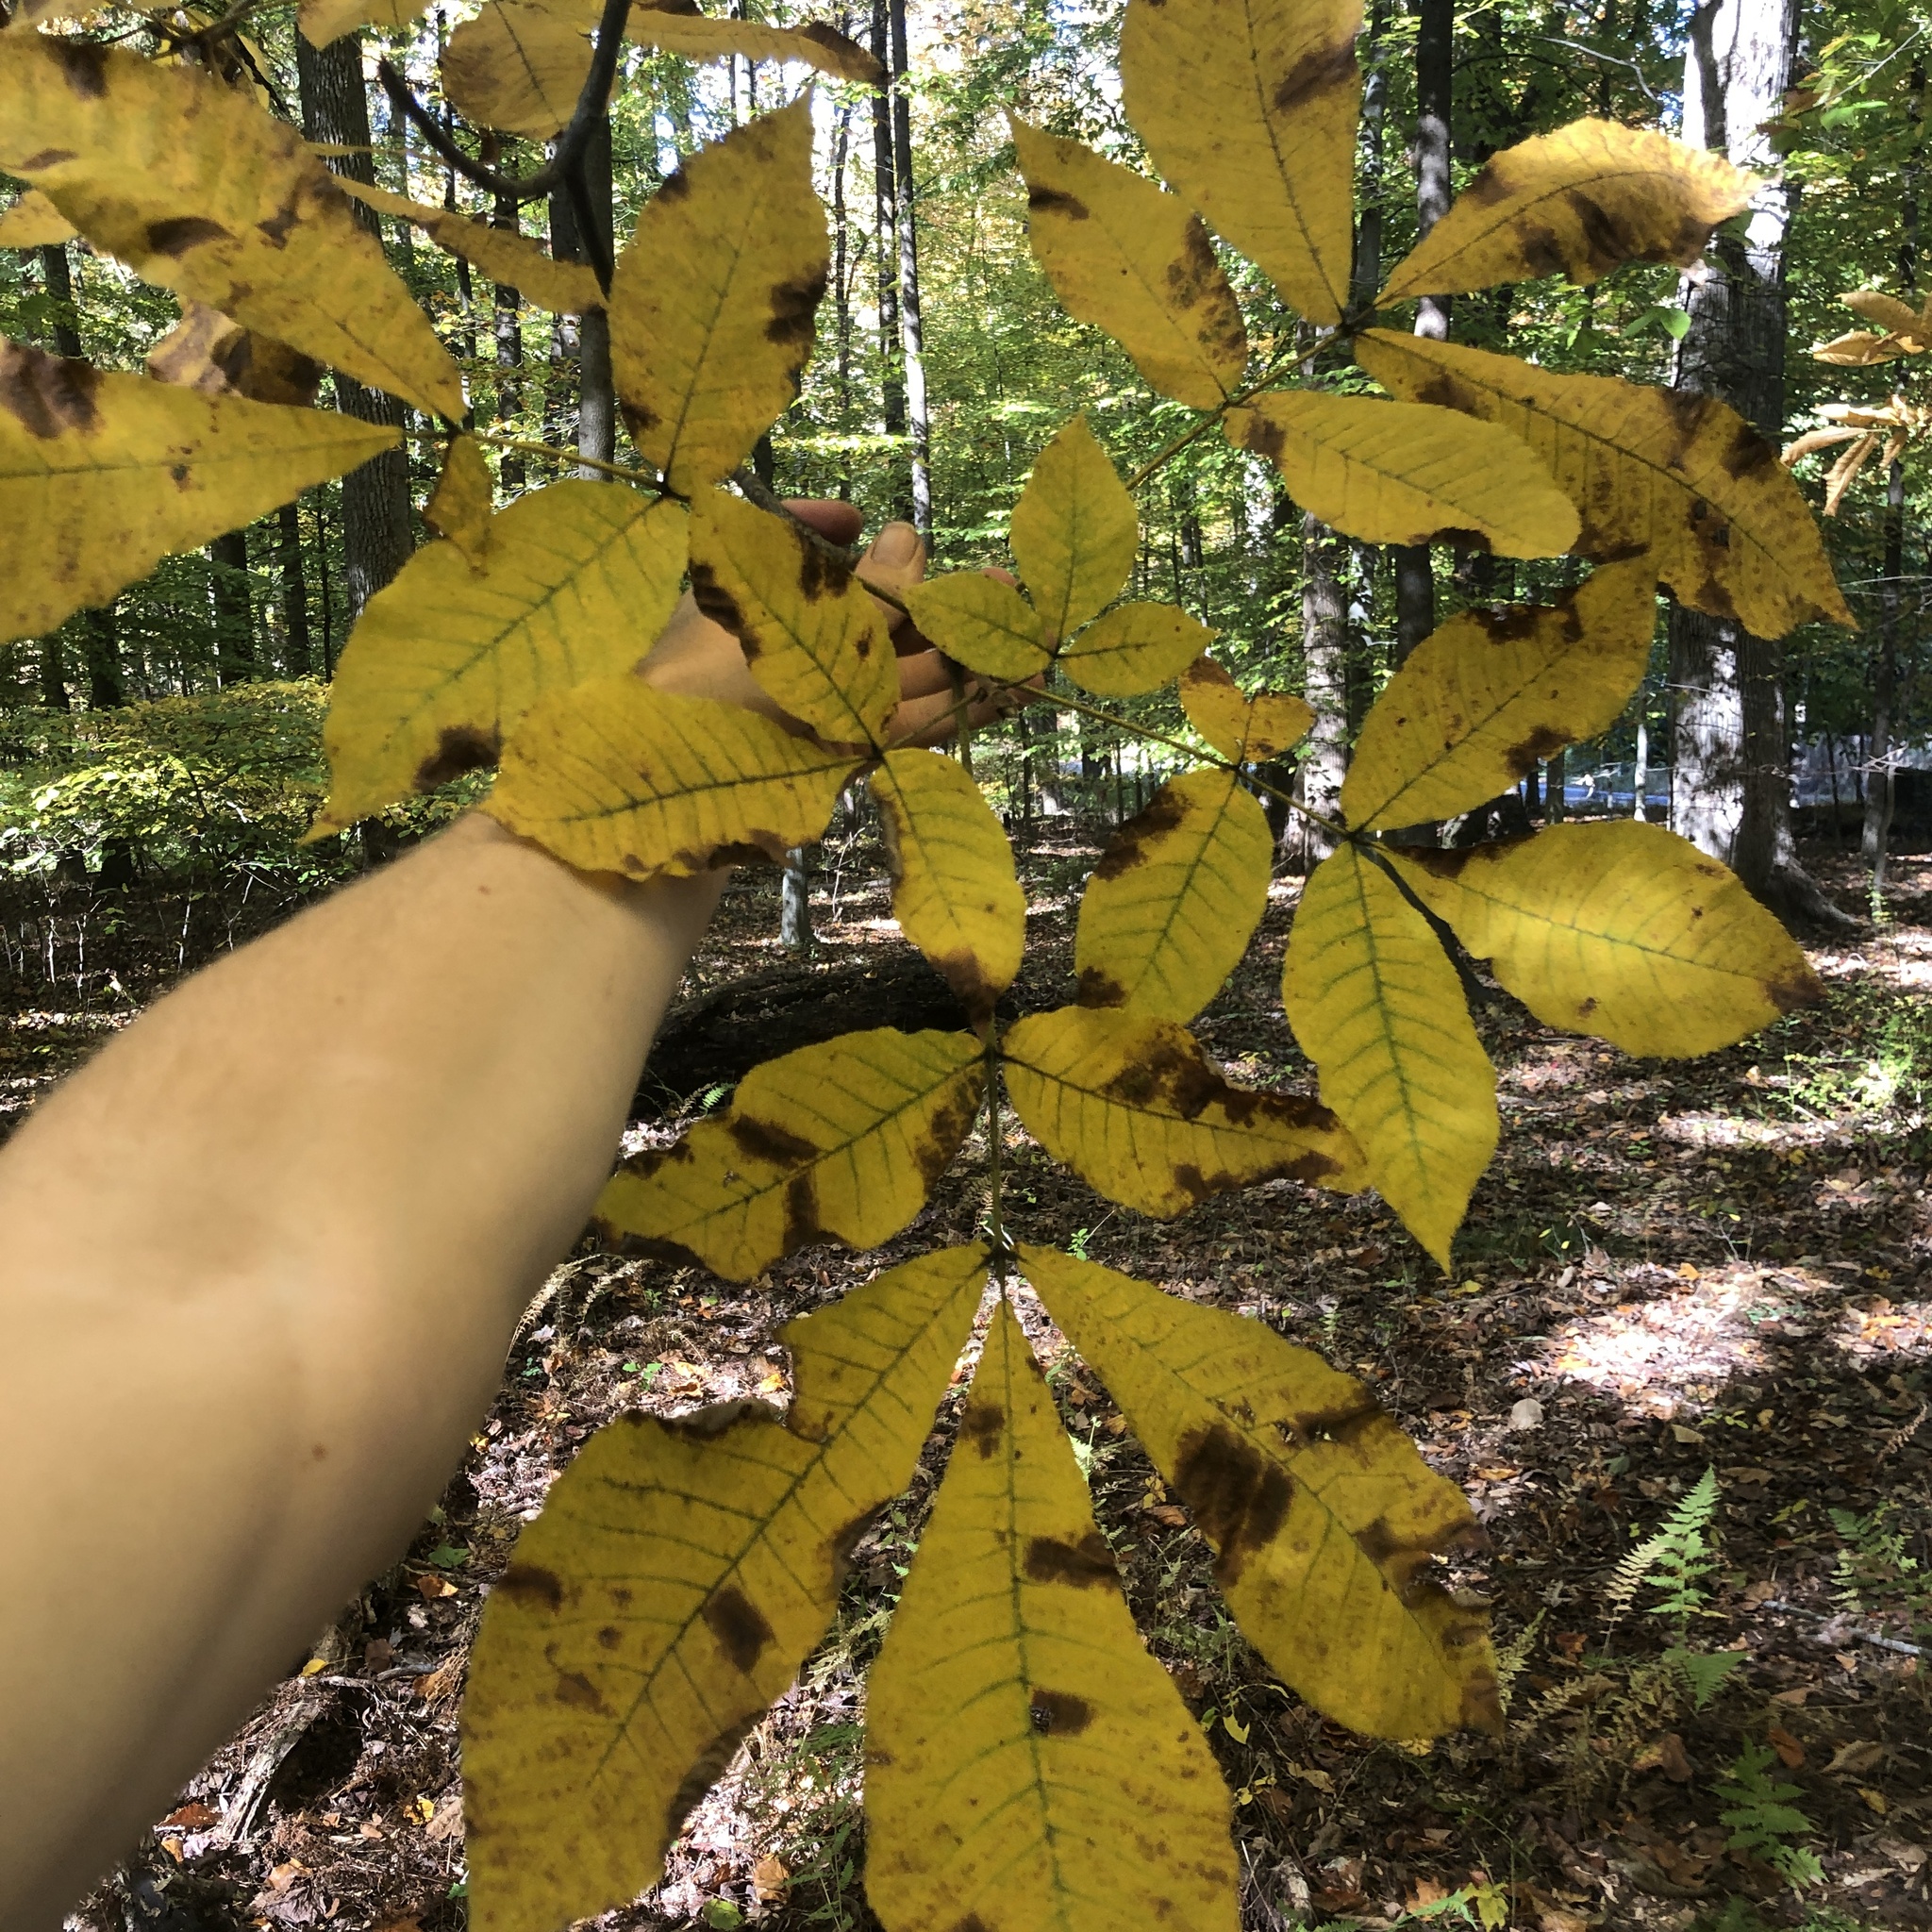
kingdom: Plantae
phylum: Tracheophyta
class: Magnoliopsida
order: Fagales
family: Juglandaceae
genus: Carya
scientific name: Carya ovata
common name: Shagbark hickory
